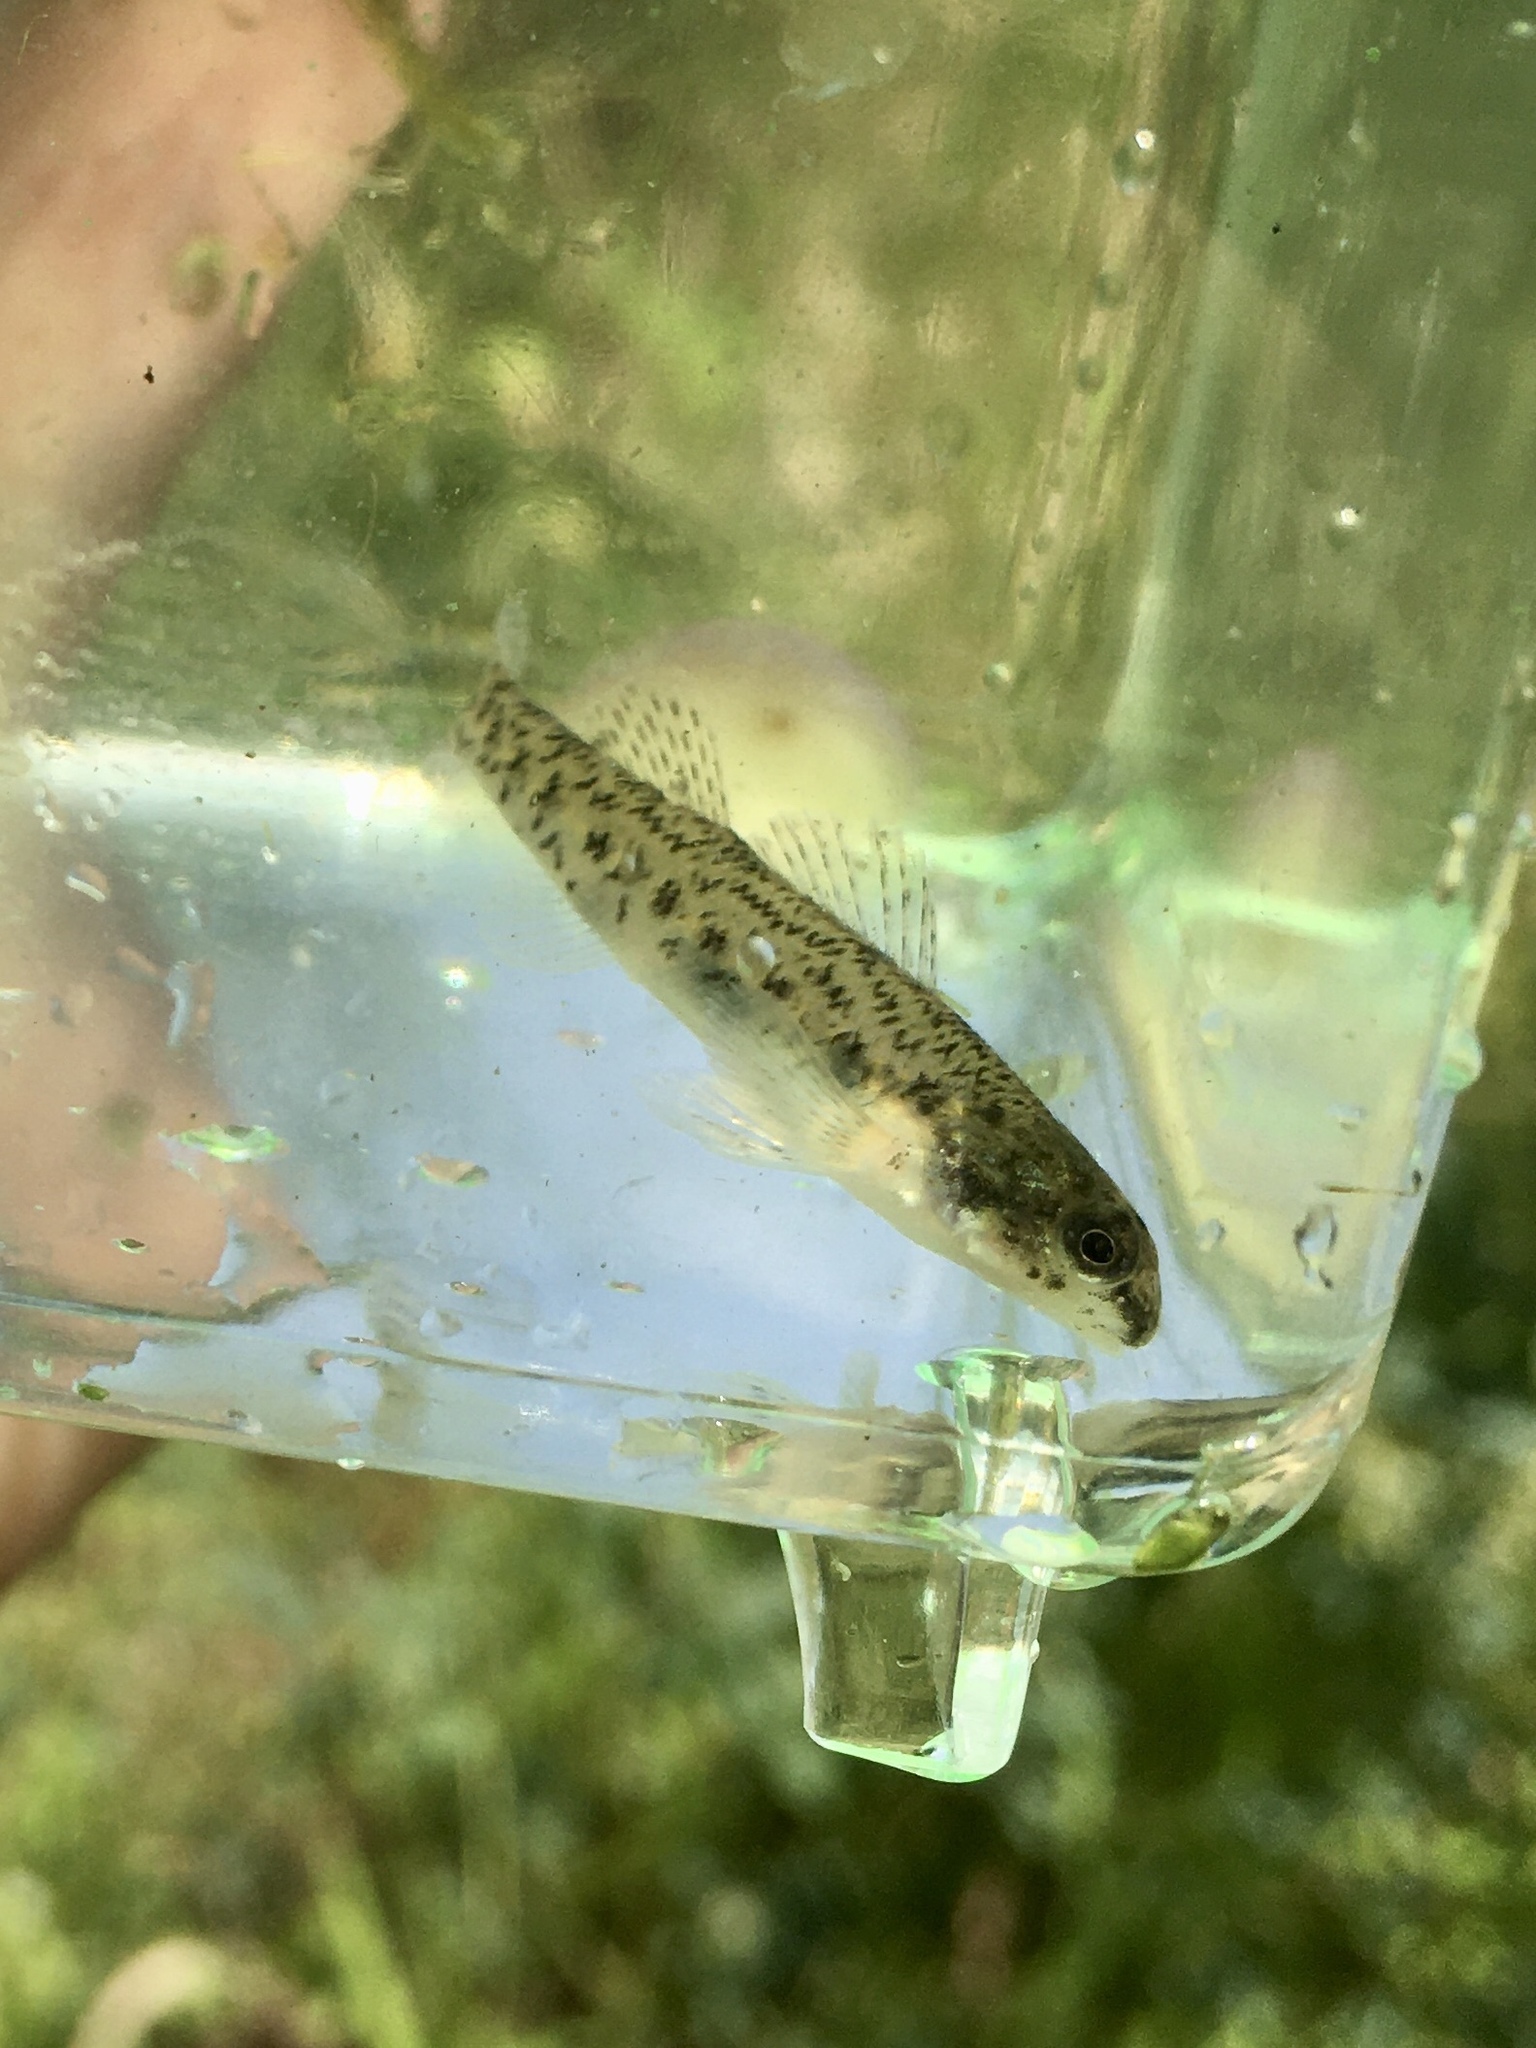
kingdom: Animalia
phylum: Chordata
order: Perciformes
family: Percidae
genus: Etheostoma
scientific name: Etheostoma nigrum
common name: Johnny darter
